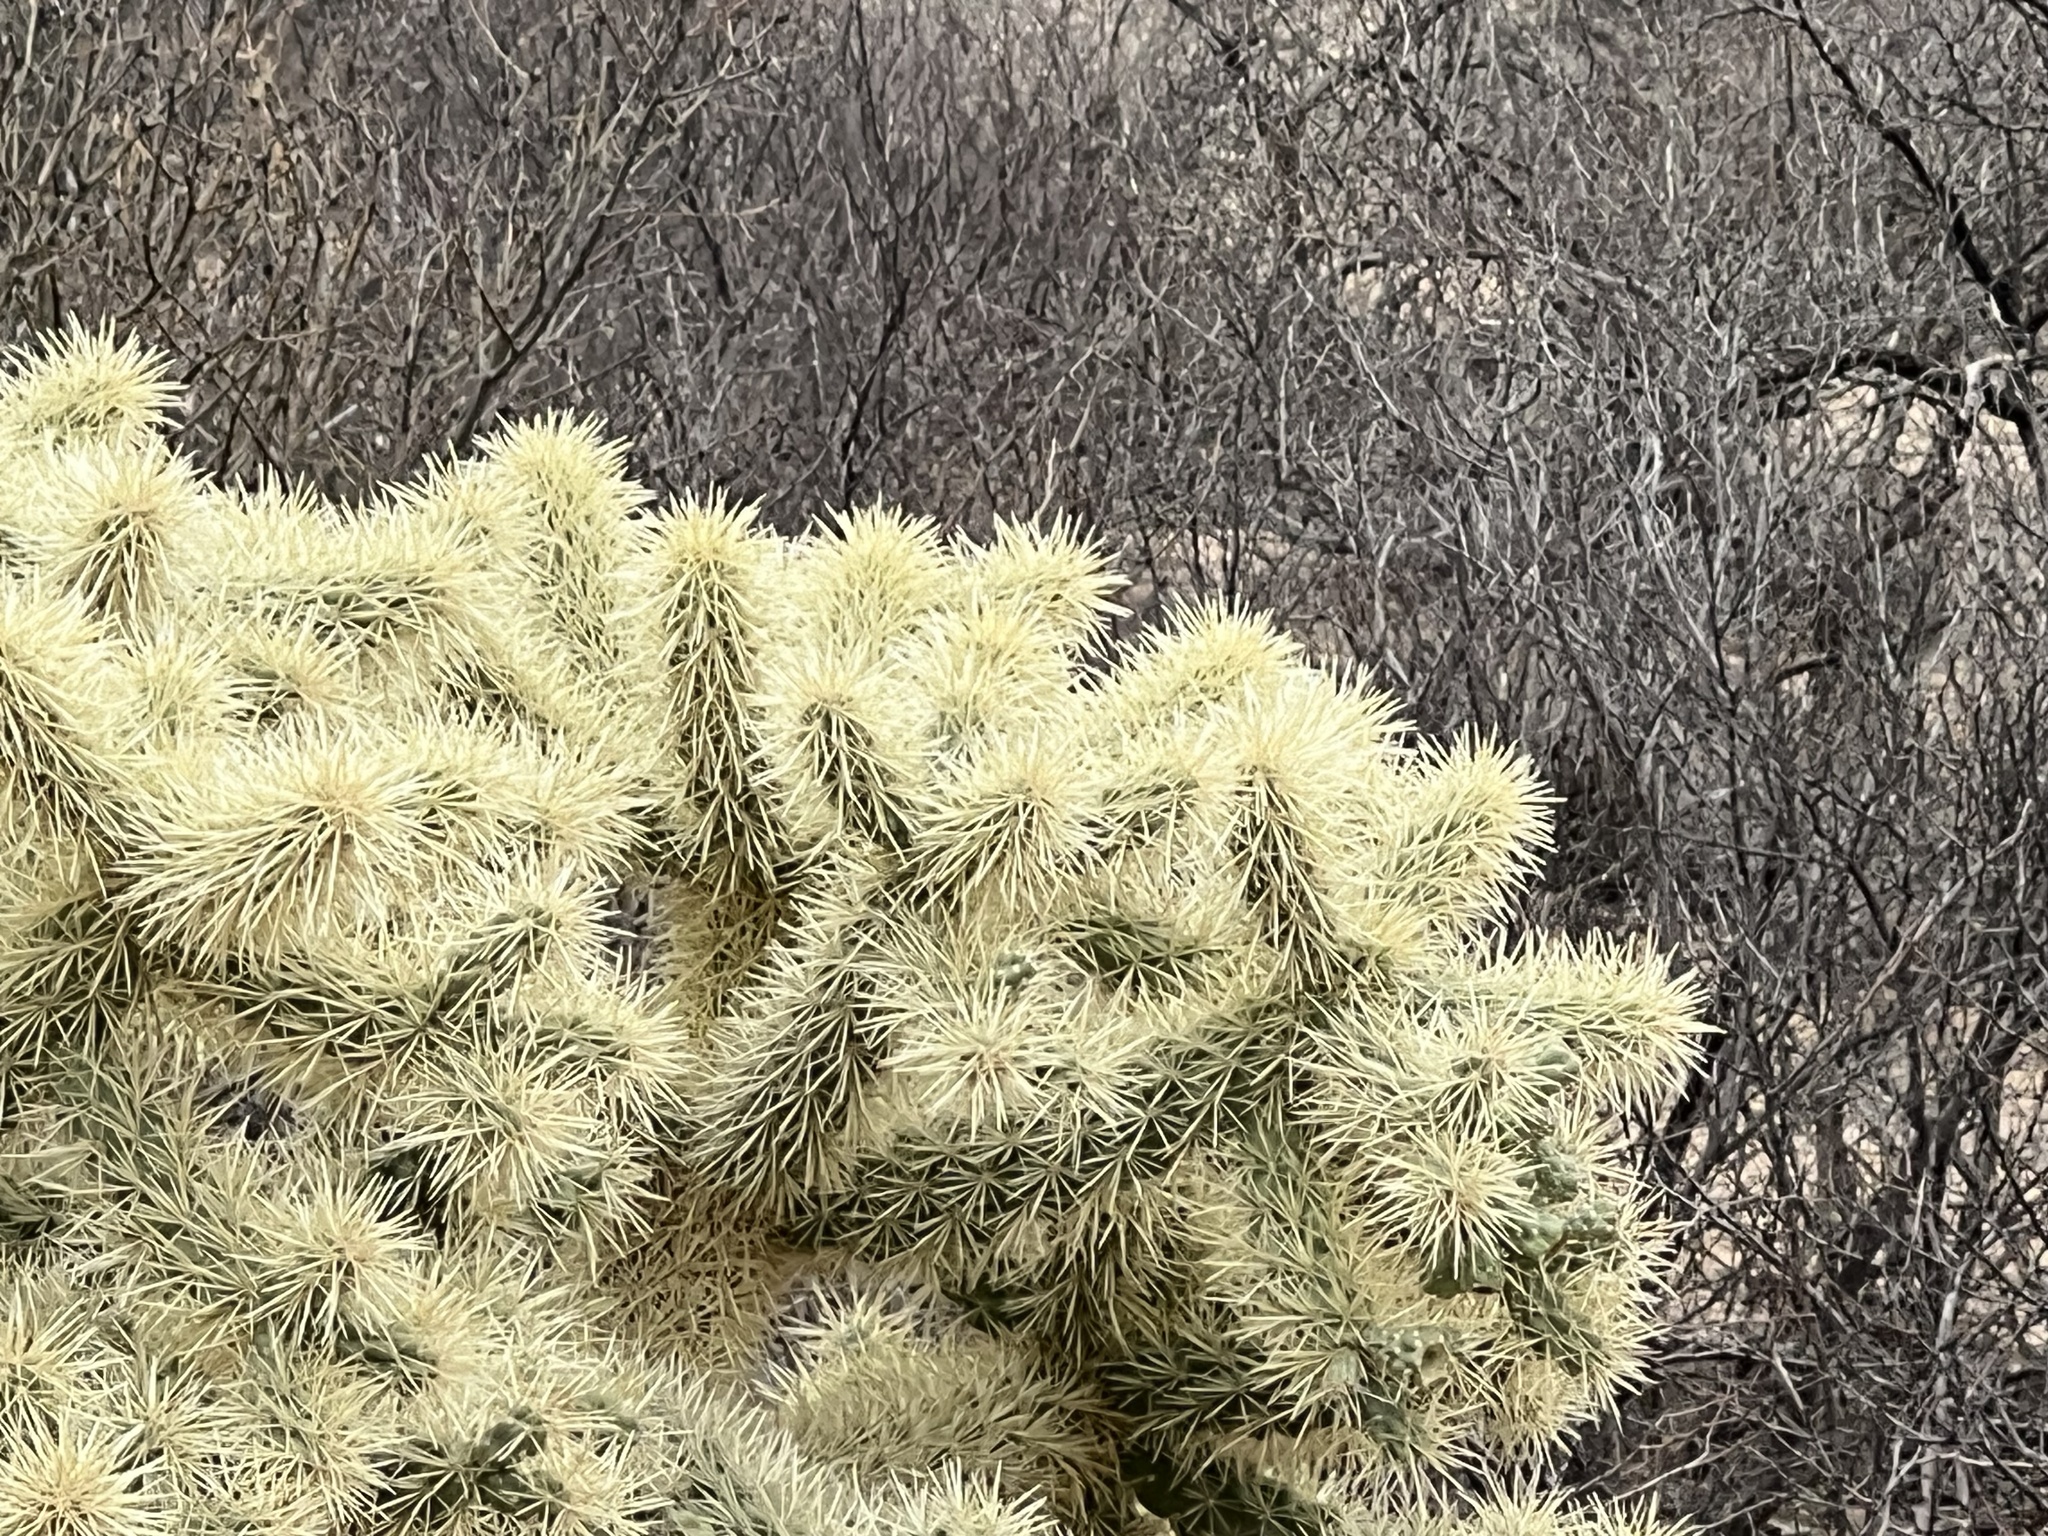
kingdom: Plantae
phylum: Tracheophyta
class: Magnoliopsida
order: Caryophyllales
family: Cactaceae
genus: Cylindropuntia
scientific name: Cylindropuntia fulgida
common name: Jumping cholla
